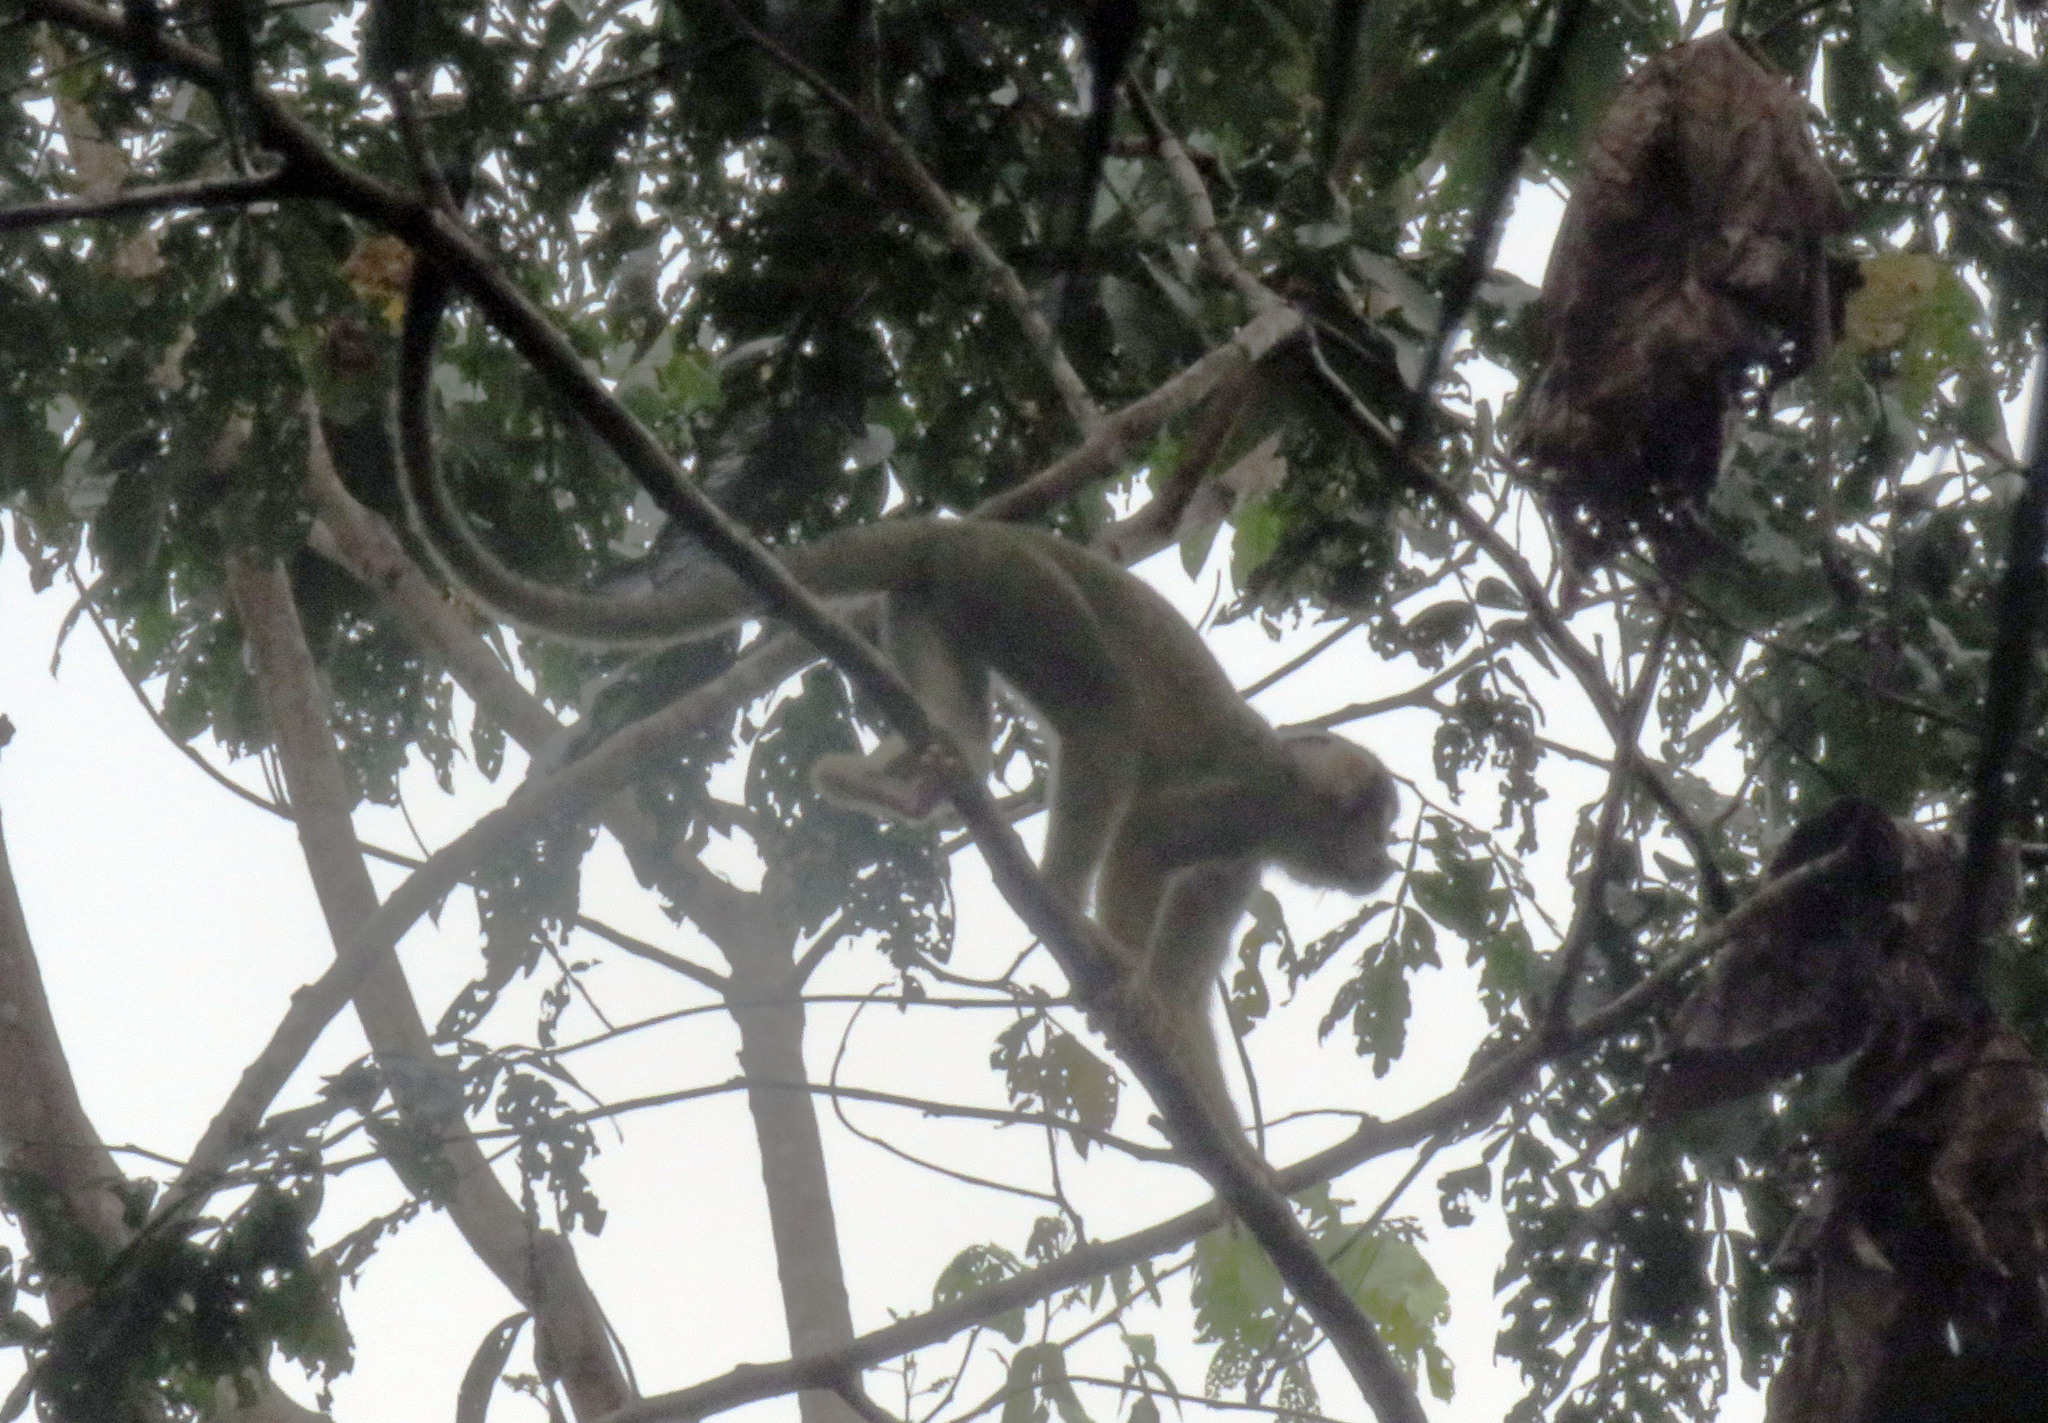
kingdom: Animalia
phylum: Chordata
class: Mammalia
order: Primates
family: Cebidae
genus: Saimiri
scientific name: Saimiri boliviensis
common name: Black-capped squirrel monkey
